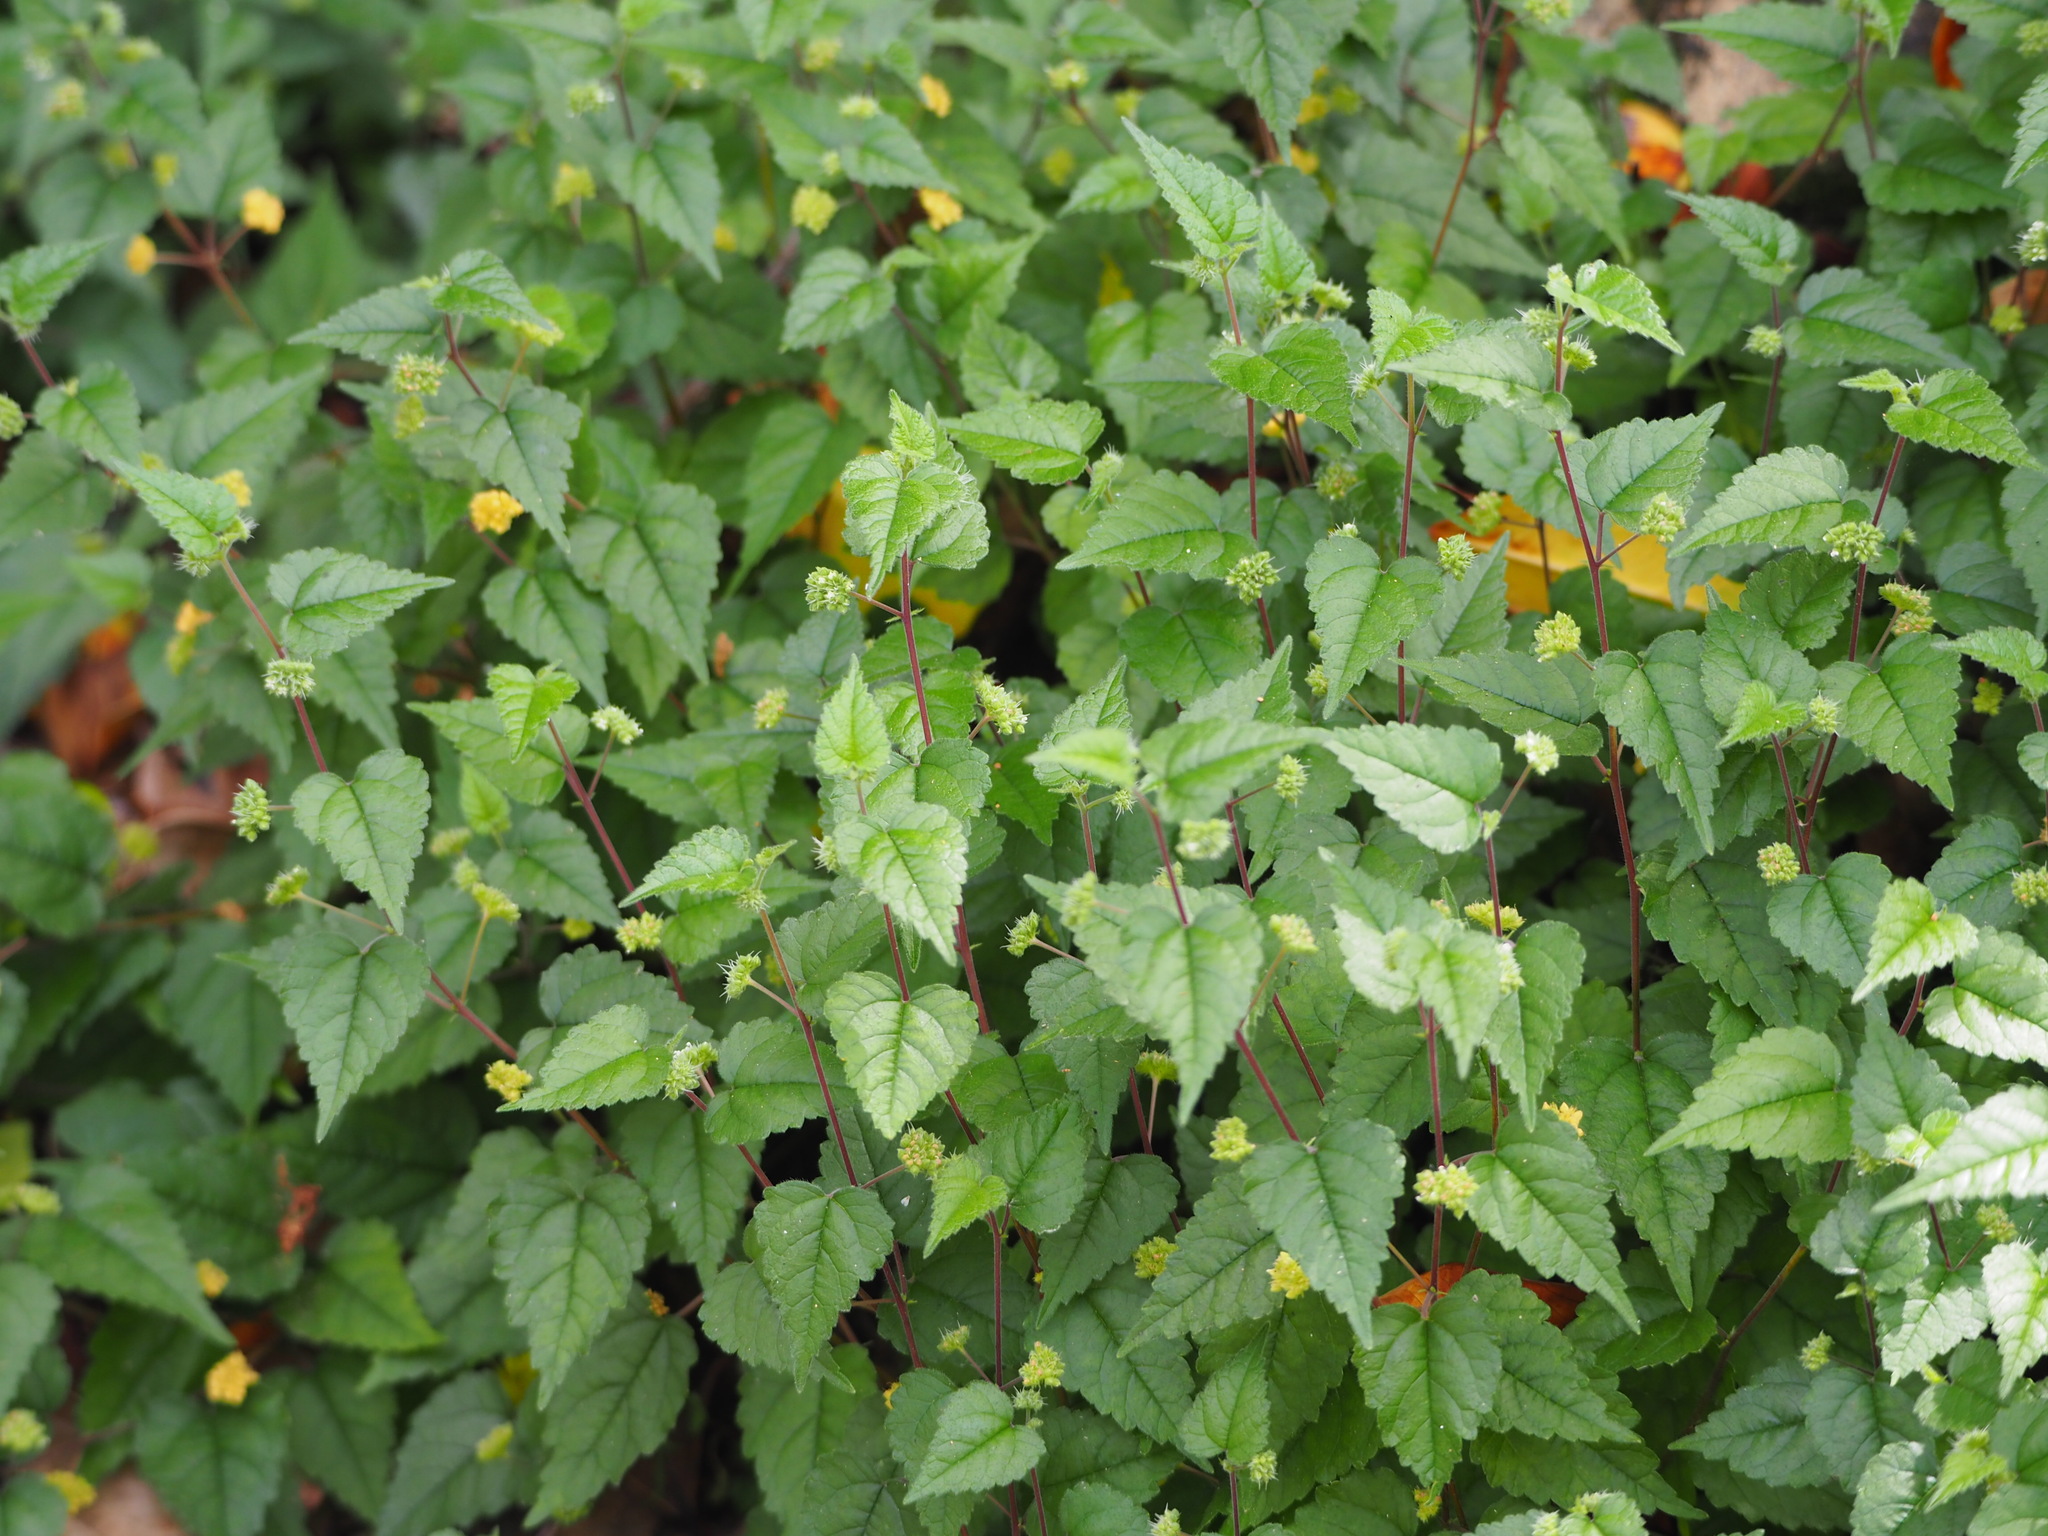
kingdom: Plantae
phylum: Tracheophyta
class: Magnoliopsida
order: Rosales
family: Moraceae
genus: Fatoua
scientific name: Fatoua villosa
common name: Hairy crabweed
